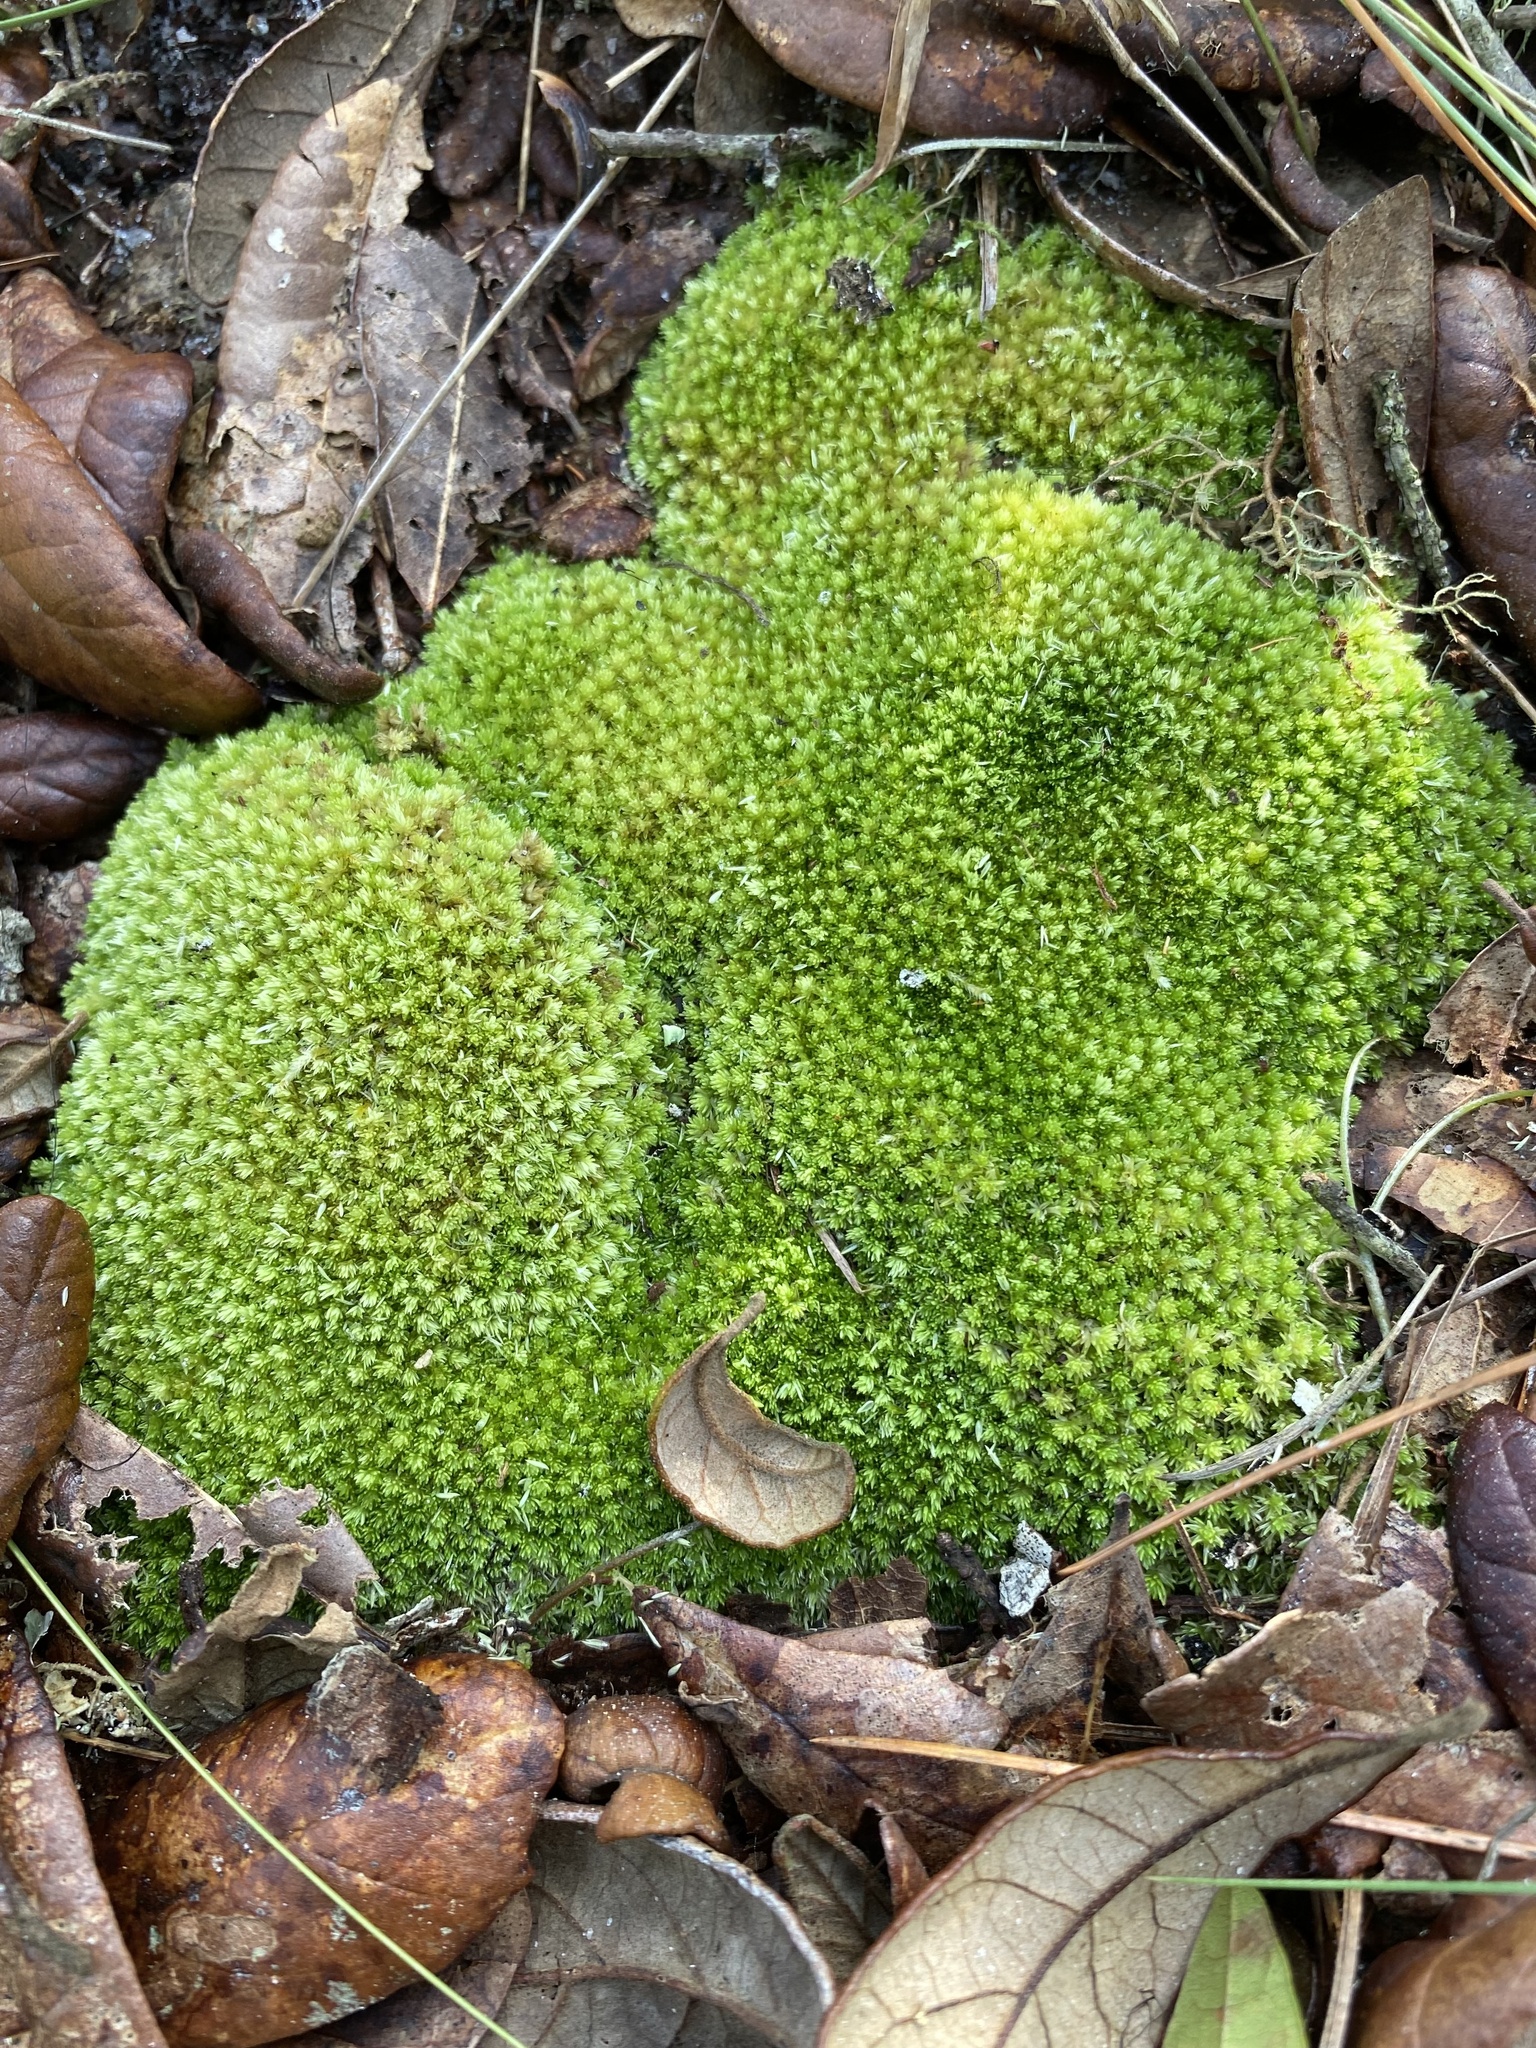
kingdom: Plantae
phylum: Bryophyta
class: Bryopsida
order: Dicranales
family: Leucobryaceae
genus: Leucobryum
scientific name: Leucobryum albidum
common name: White moss
